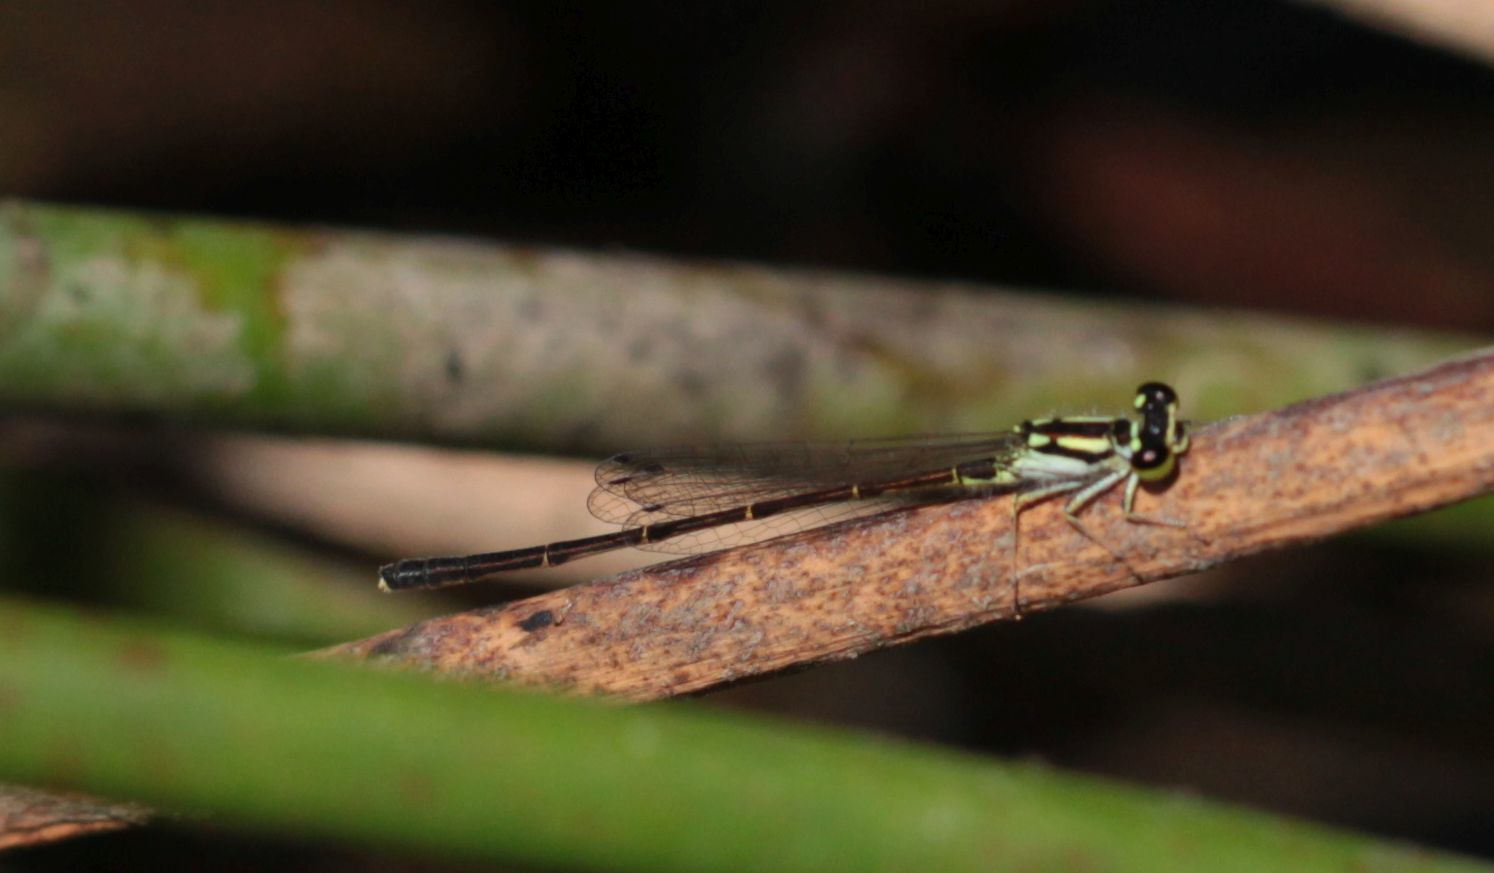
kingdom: Animalia
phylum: Arthropoda
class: Insecta
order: Odonata
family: Coenagrionidae
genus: Ischnura
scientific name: Ischnura posita
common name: Fragile forktail
